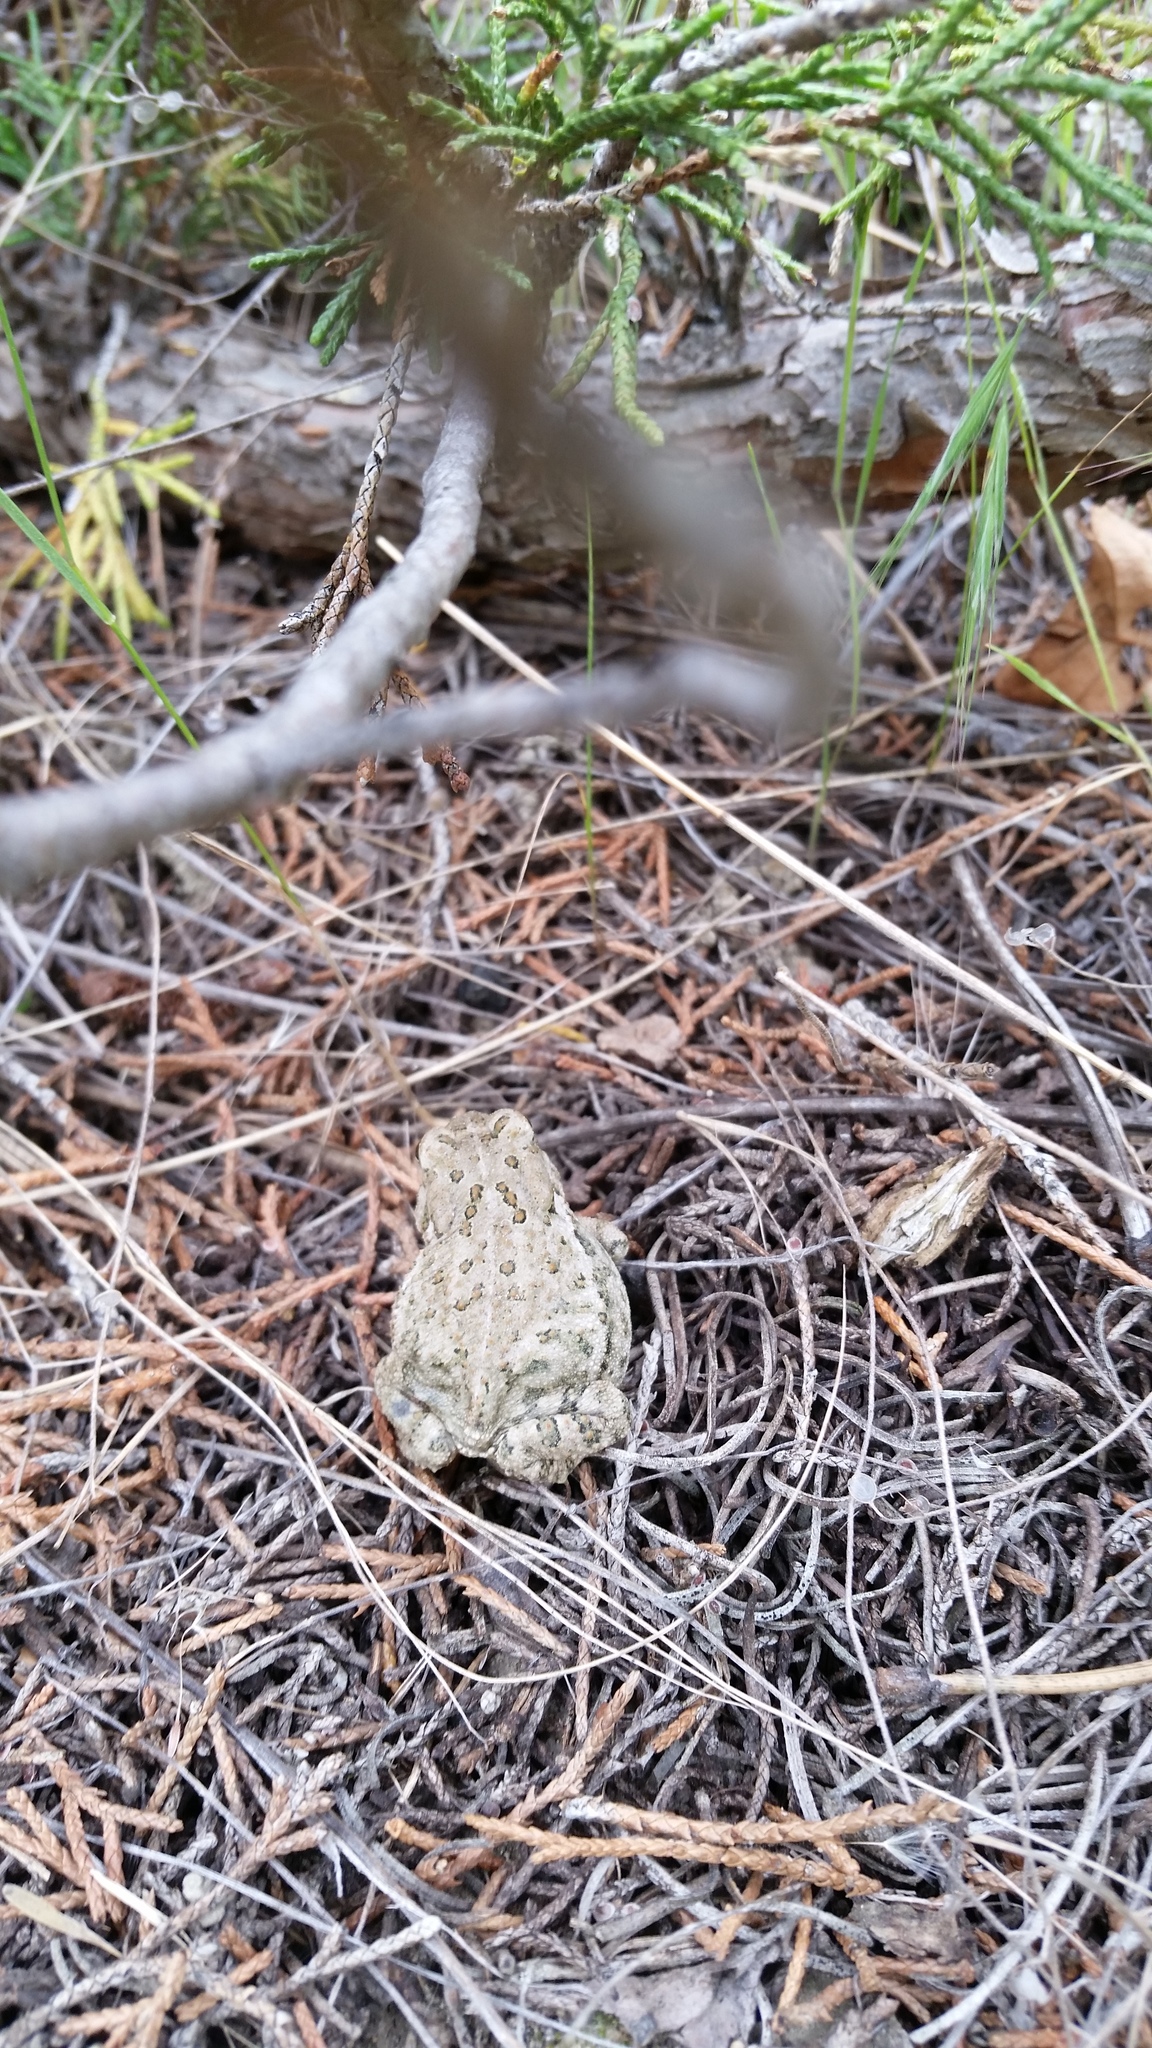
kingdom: Animalia
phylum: Chordata
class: Amphibia
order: Anura
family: Bufonidae
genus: Anaxyrus
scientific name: Anaxyrus woodhousii
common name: Woodhouse's toad
